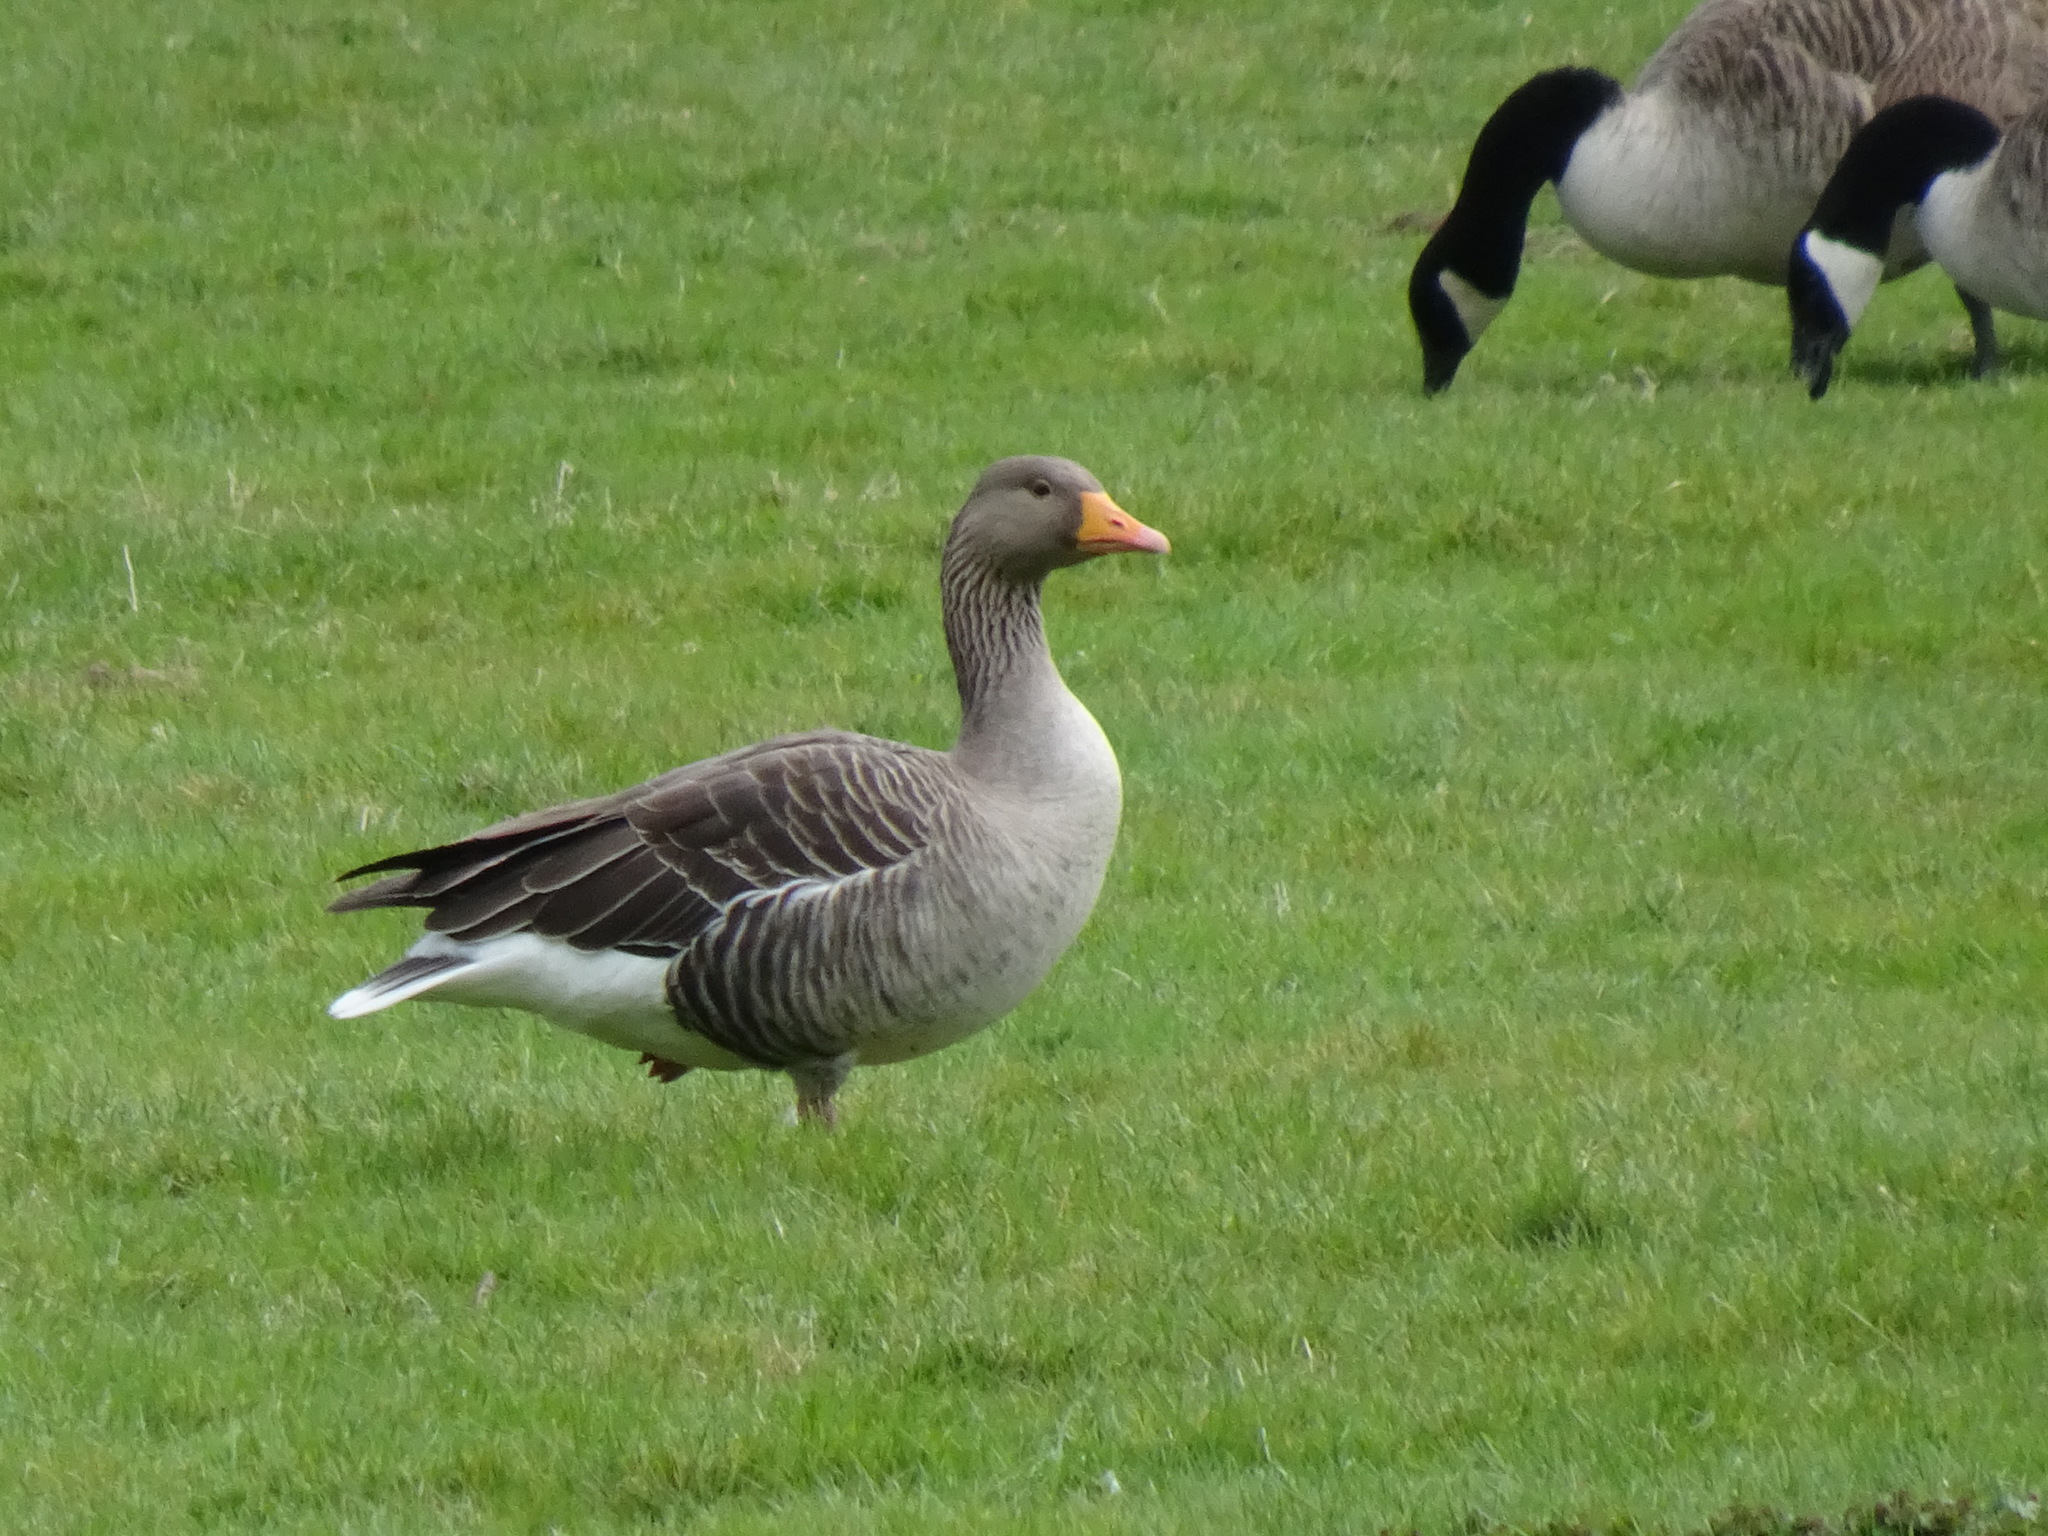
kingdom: Animalia
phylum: Chordata
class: Aves
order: Anseriformes
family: Anatidae
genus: Anser
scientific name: Anser anser
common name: Greylag goose
